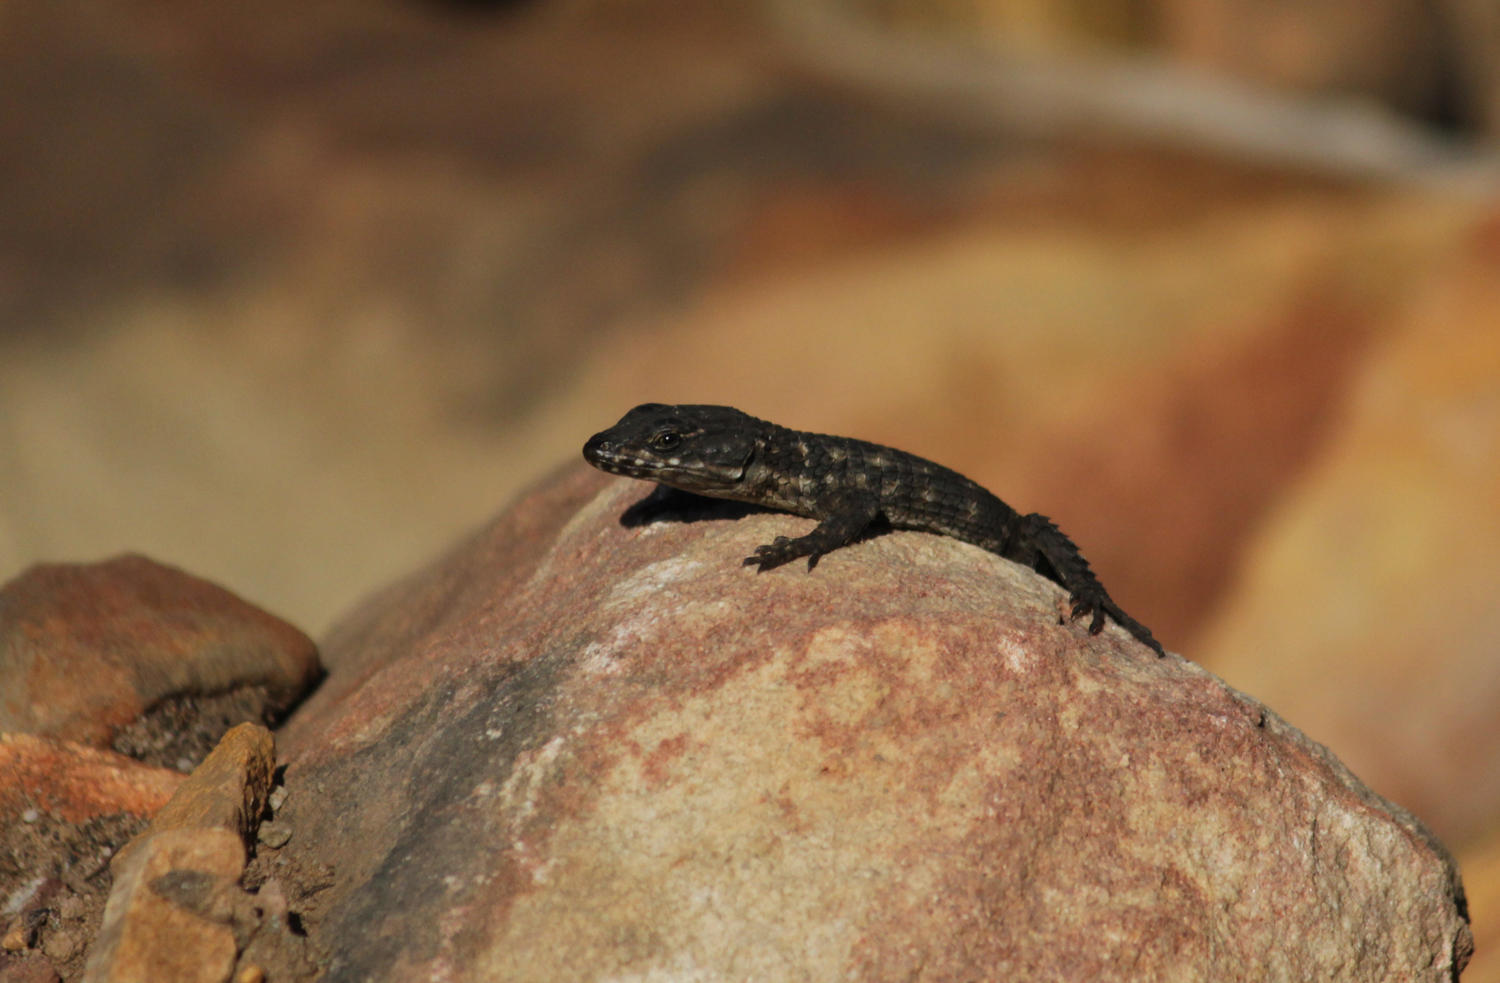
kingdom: Animalia
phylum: Chordata
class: Squamata
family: Cordylidae
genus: Cordylus
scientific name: Cordylus cordylus
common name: Cape girdled lizard
